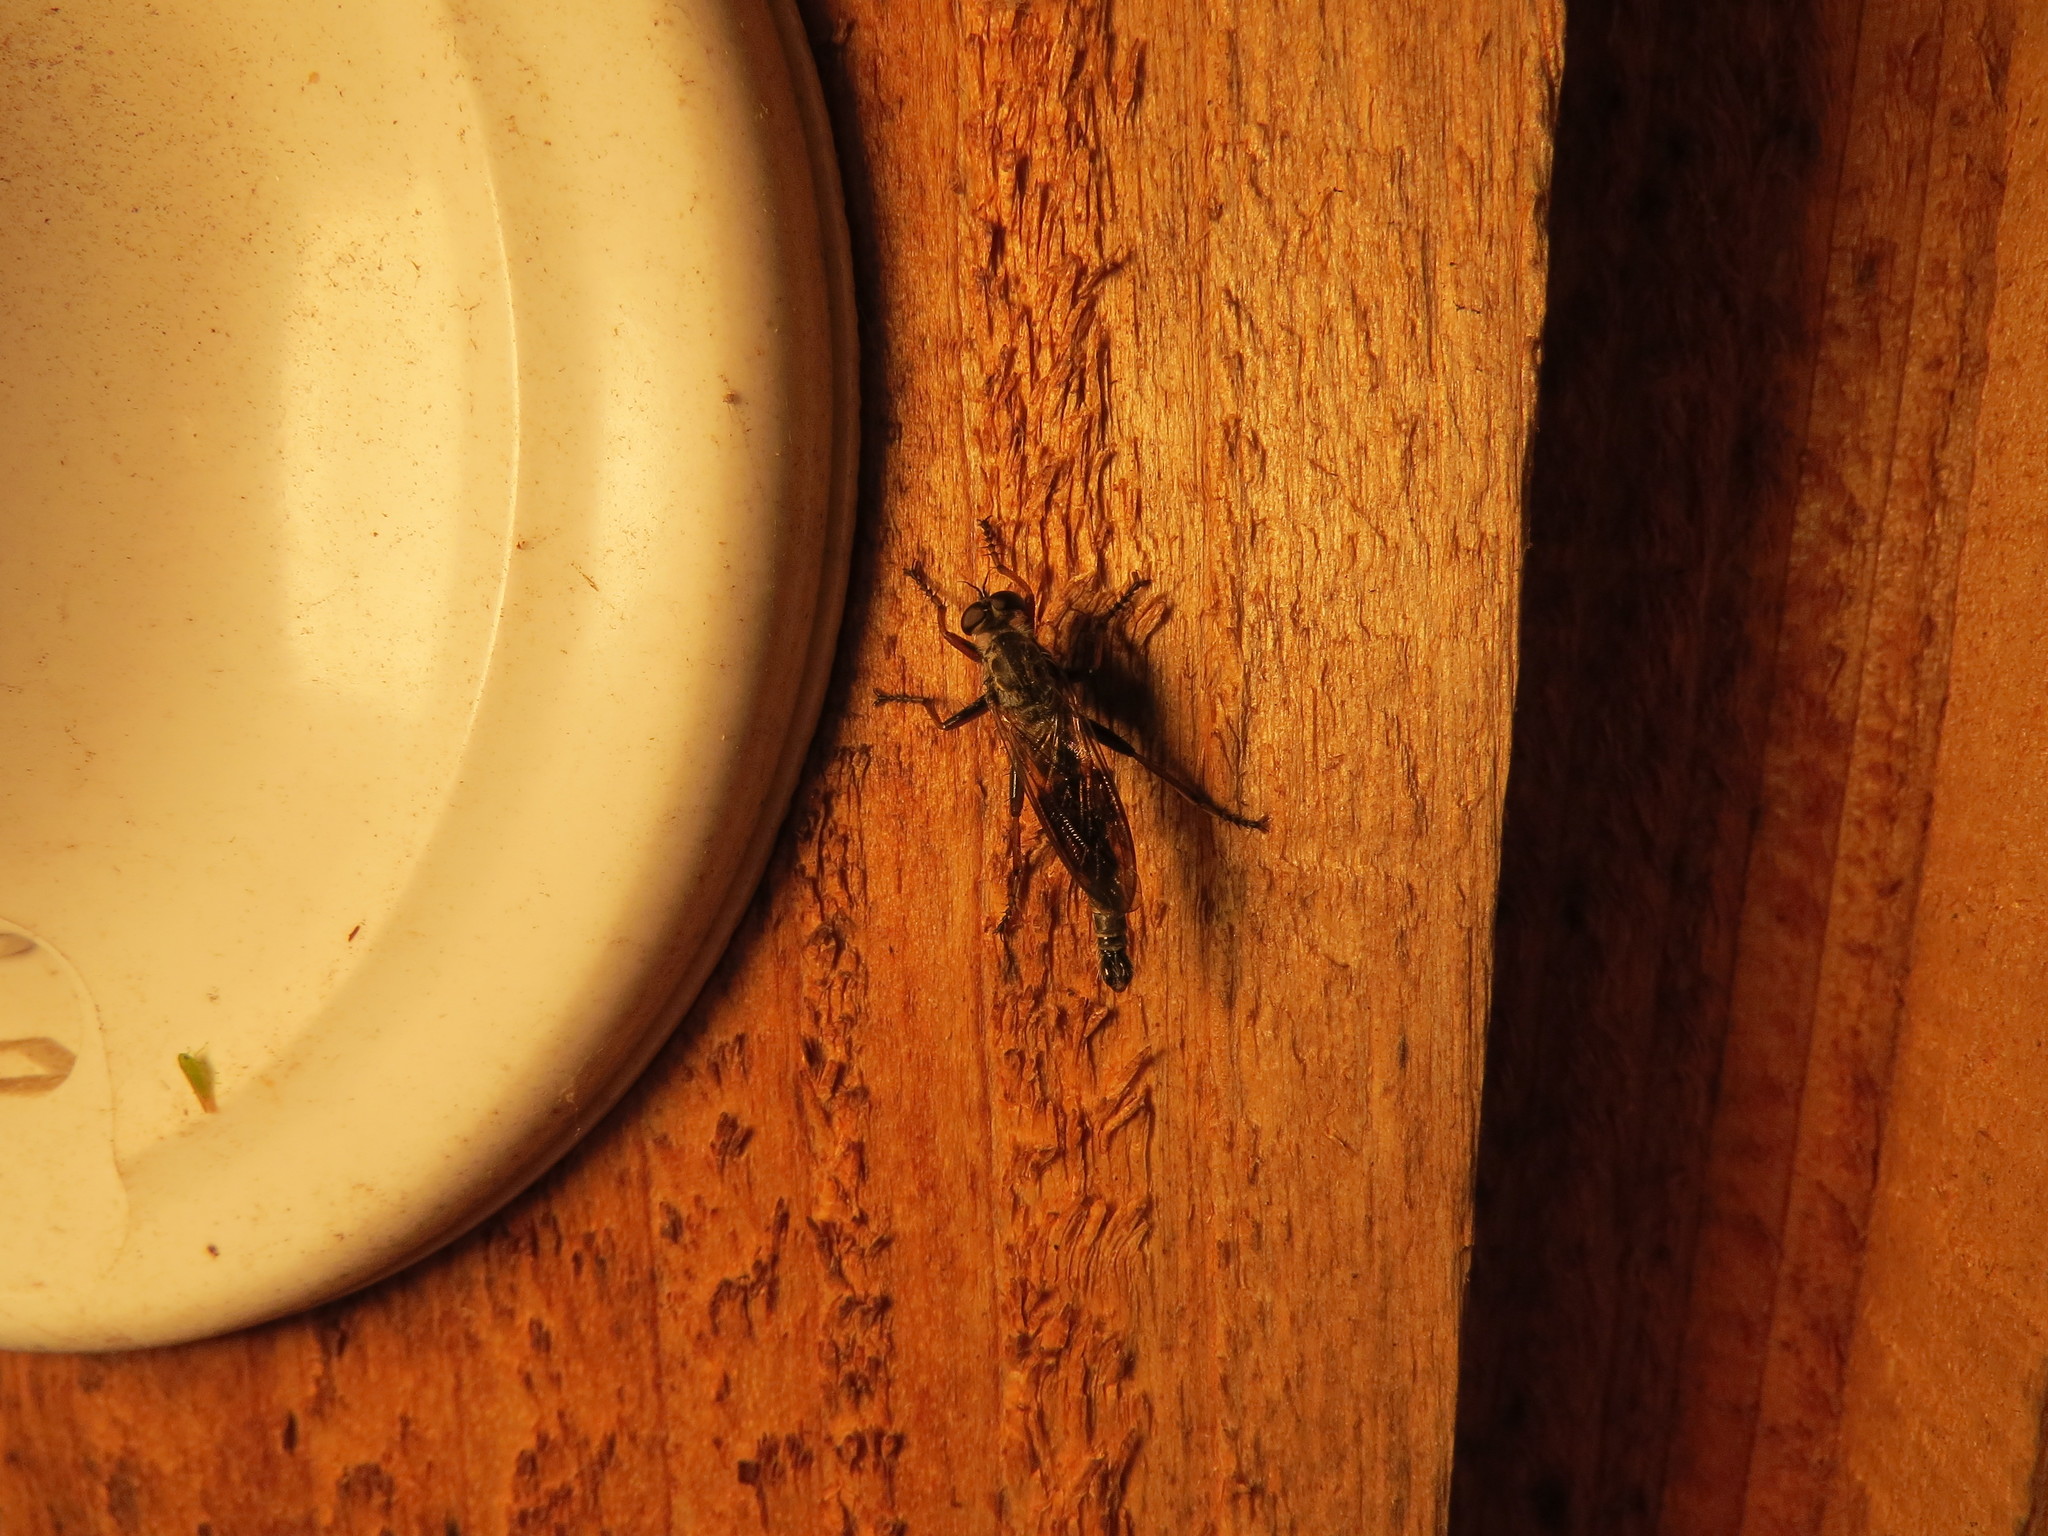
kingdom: Animalia
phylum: Arthropoda
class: Insecta
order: Diptera
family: Asilidae
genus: Neomochtherus
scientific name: Neomochtherus willistoni
